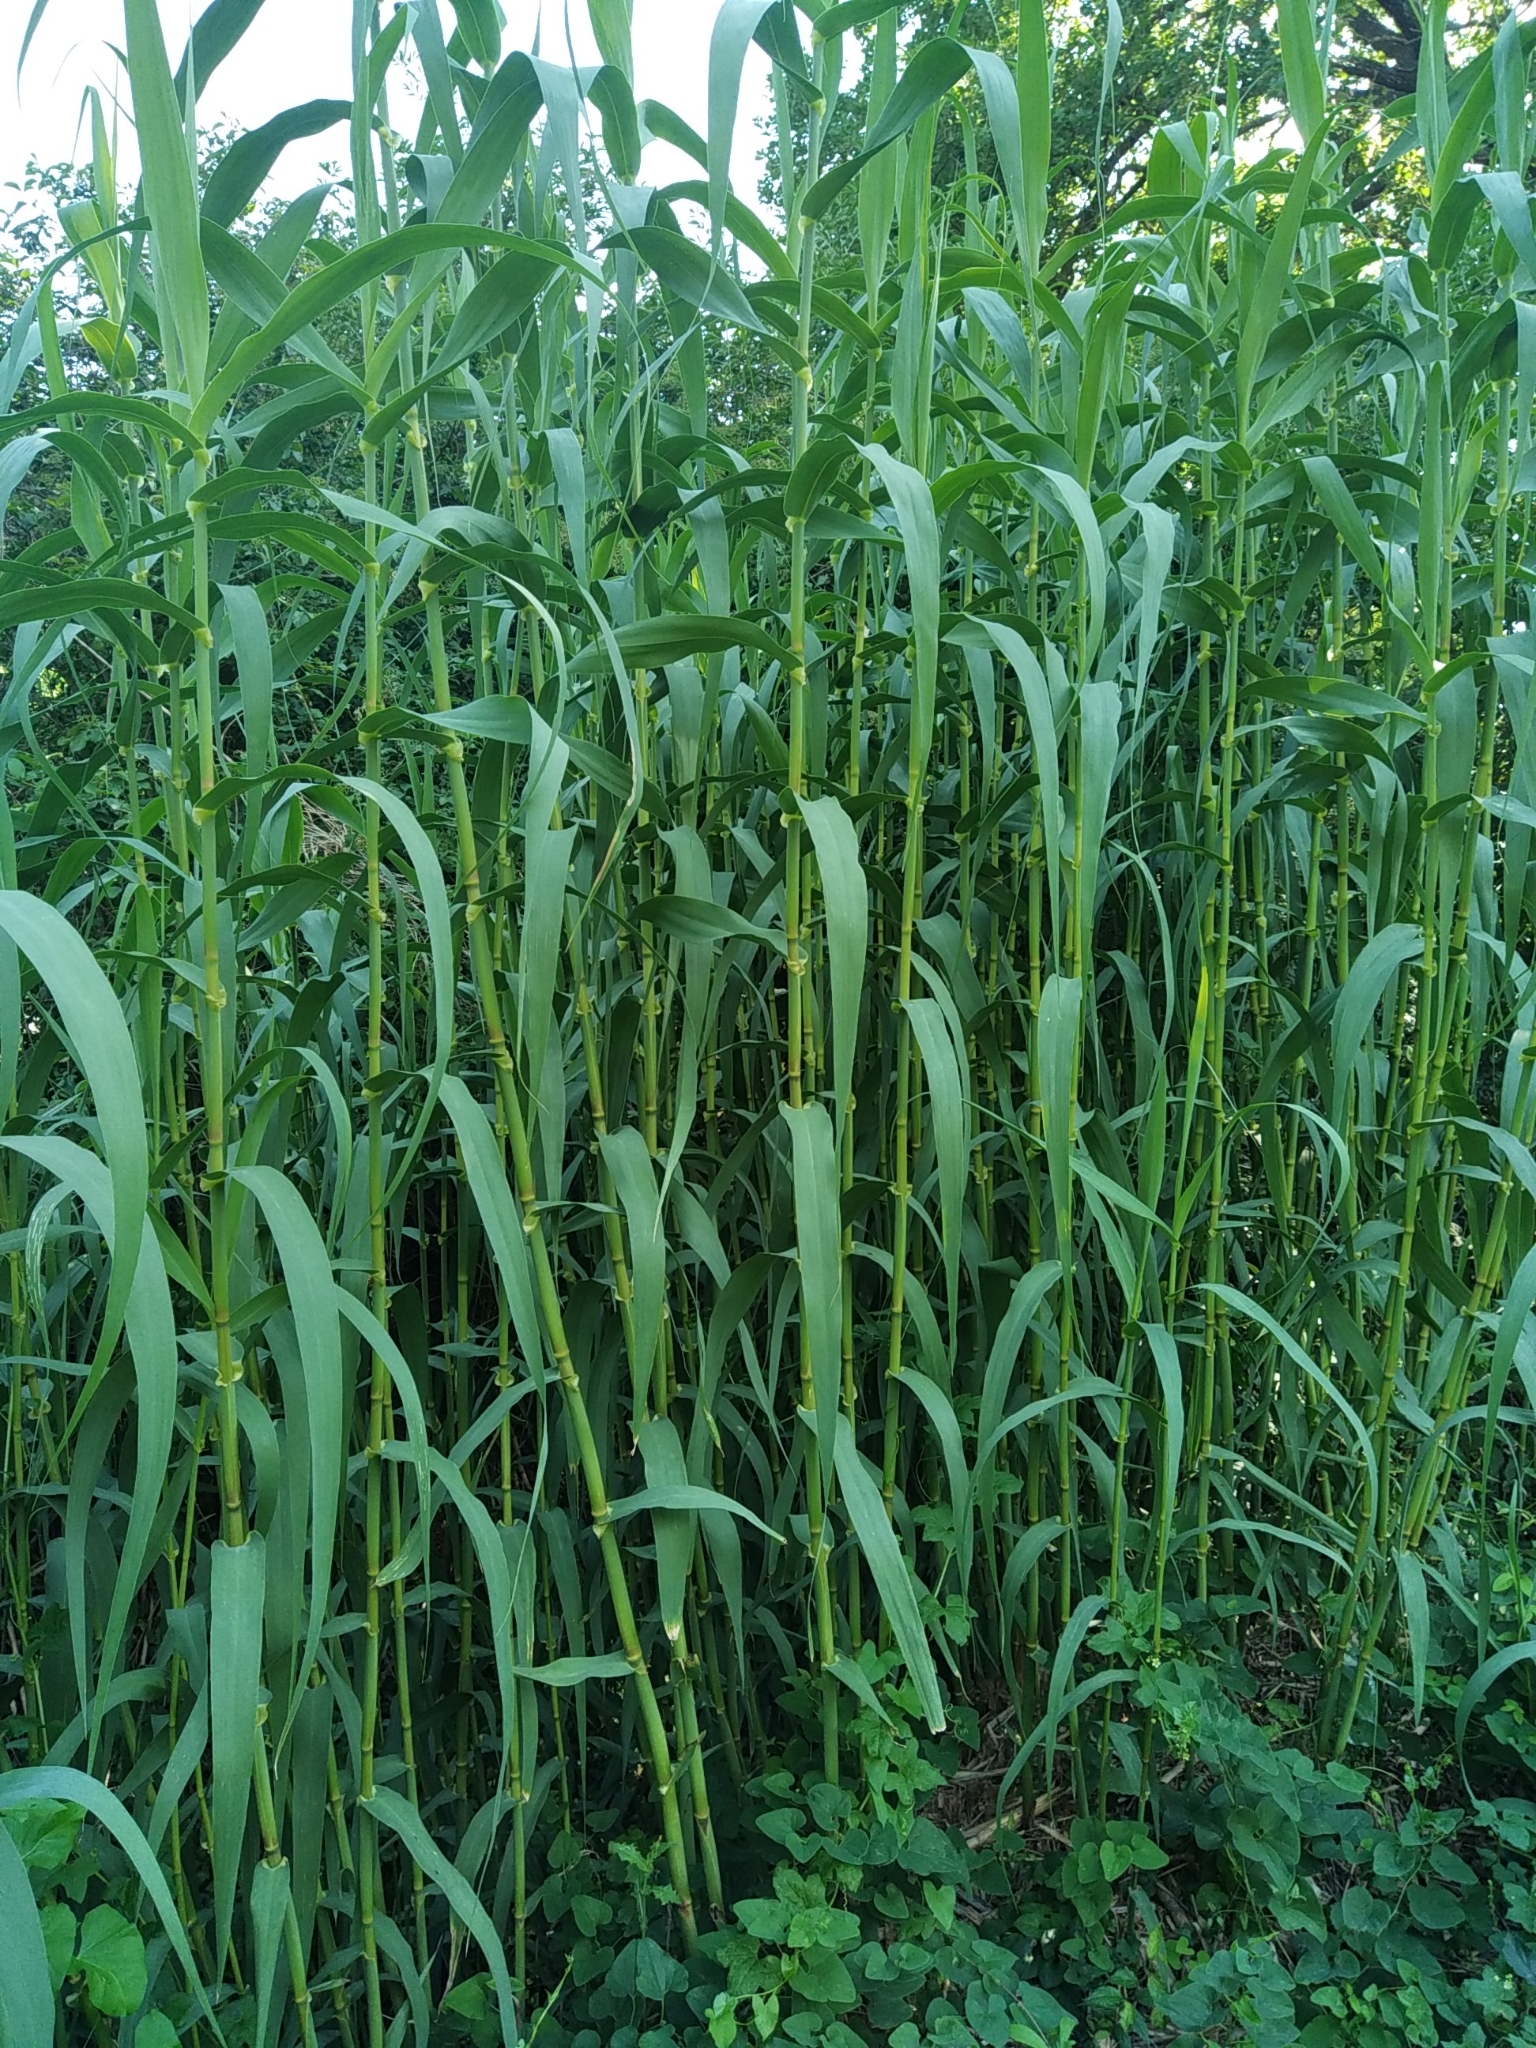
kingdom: Plantae
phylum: Tracheophyta
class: Liliopsida
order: Poales
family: Poaceae
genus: Arundo
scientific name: Arundo donax
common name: Giant reed
